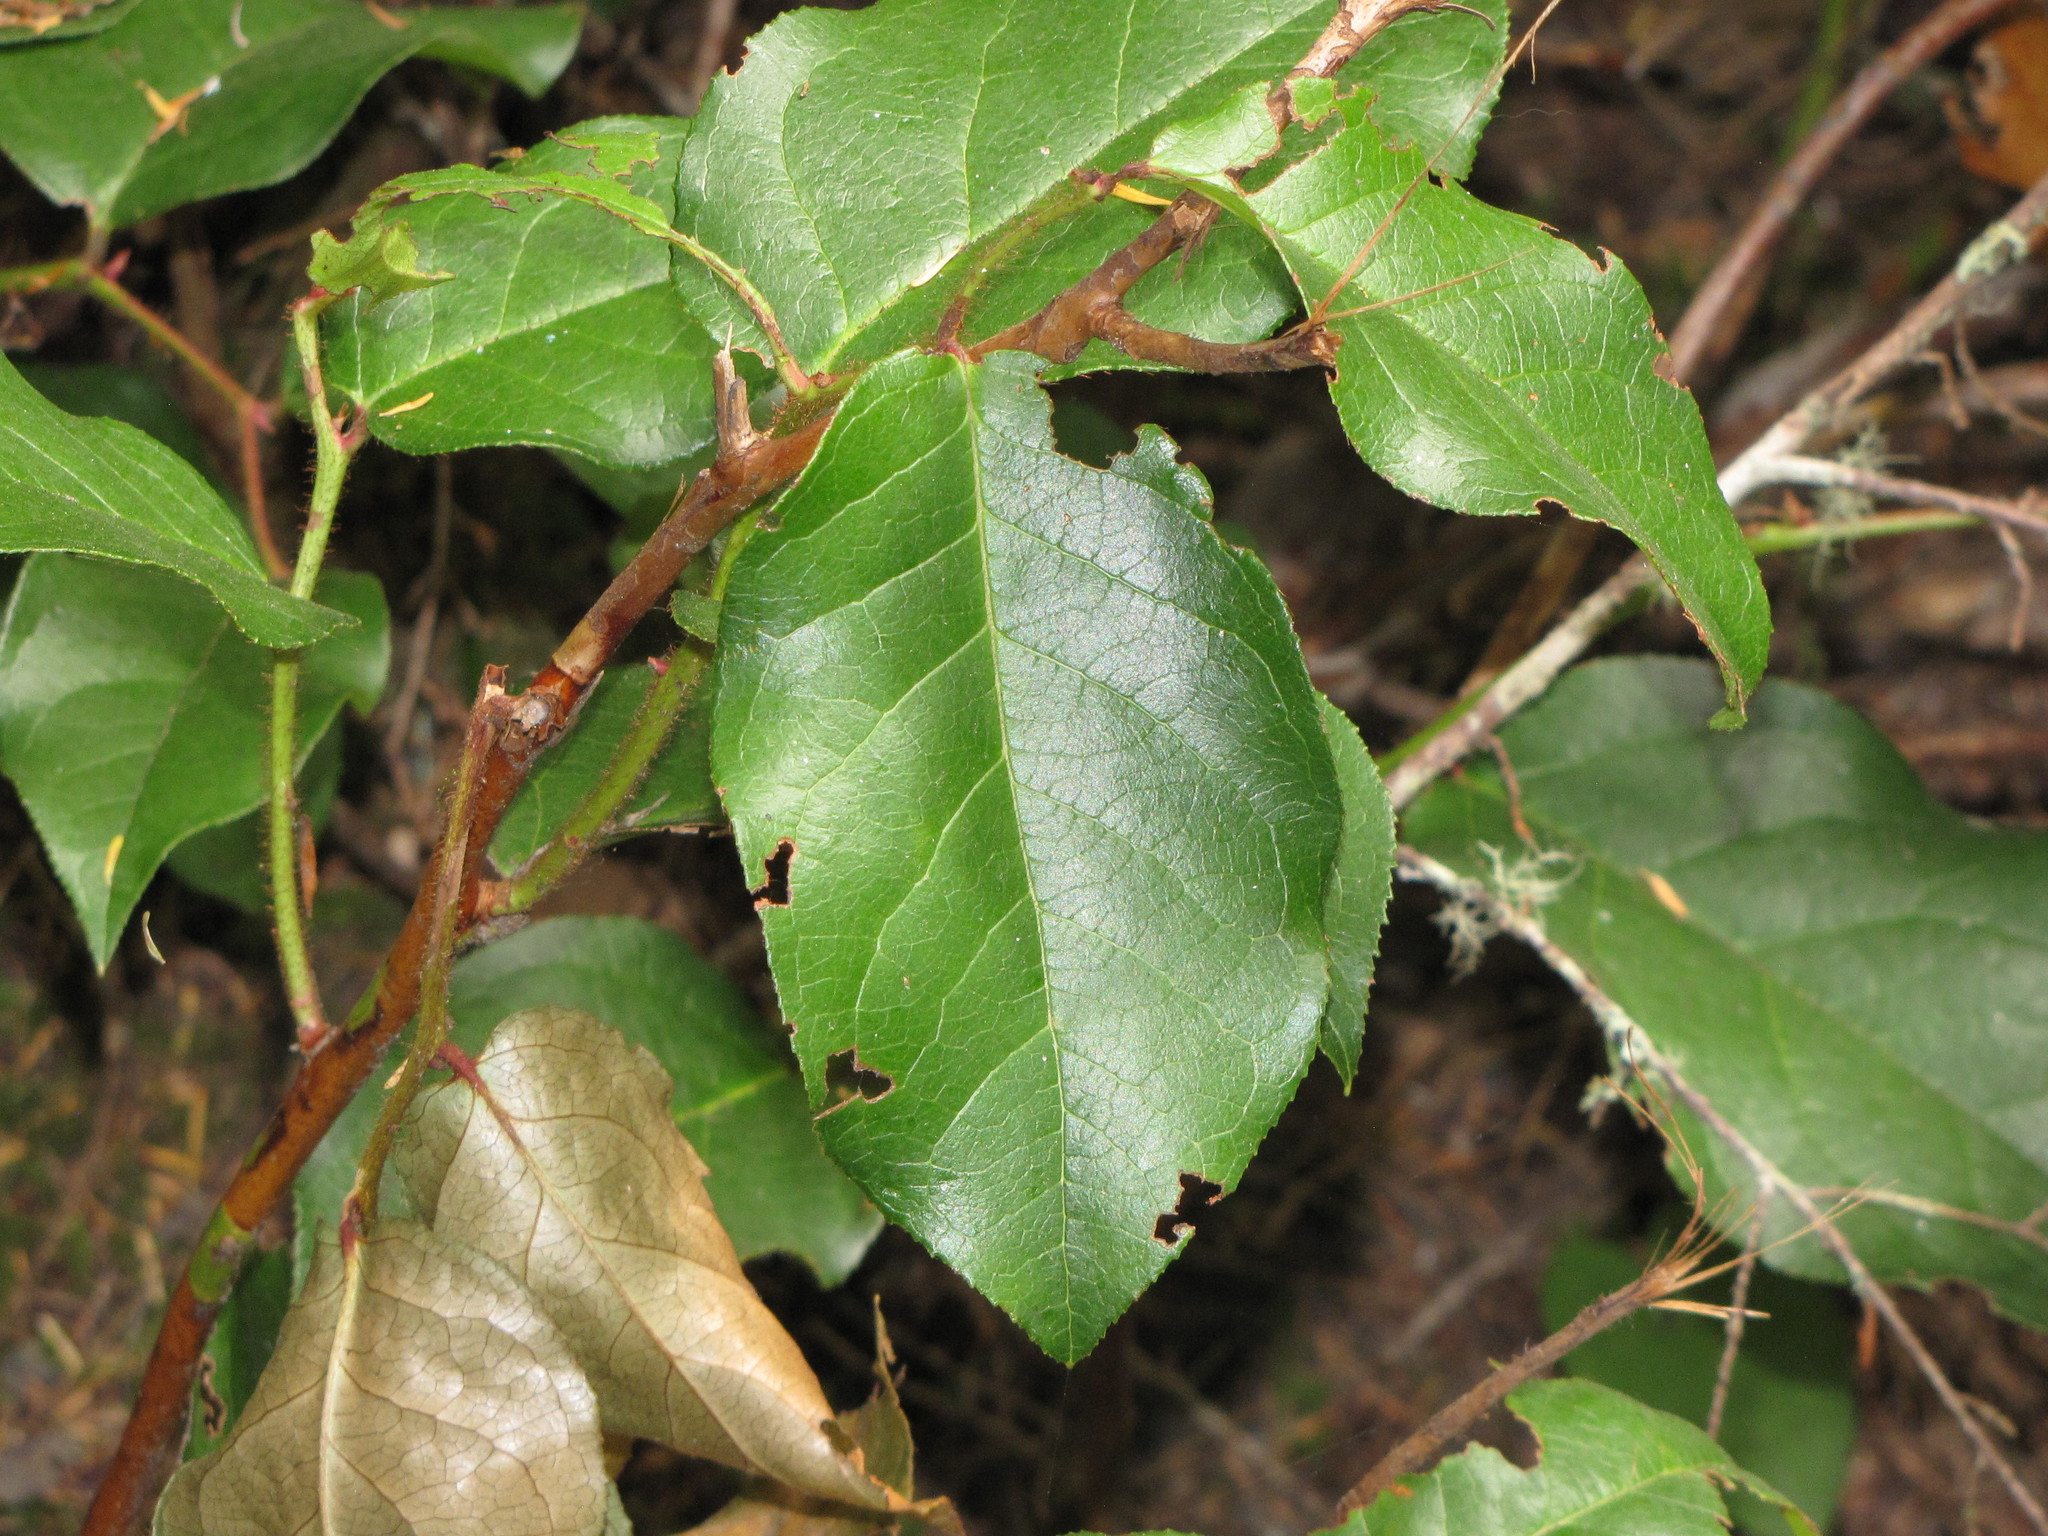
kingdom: Plantae
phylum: Tracheophyta
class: Magnoliopsida
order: Ericales
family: Ericaceae
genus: Gaultheria
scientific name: Gaultheria shallon
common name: Shallon
